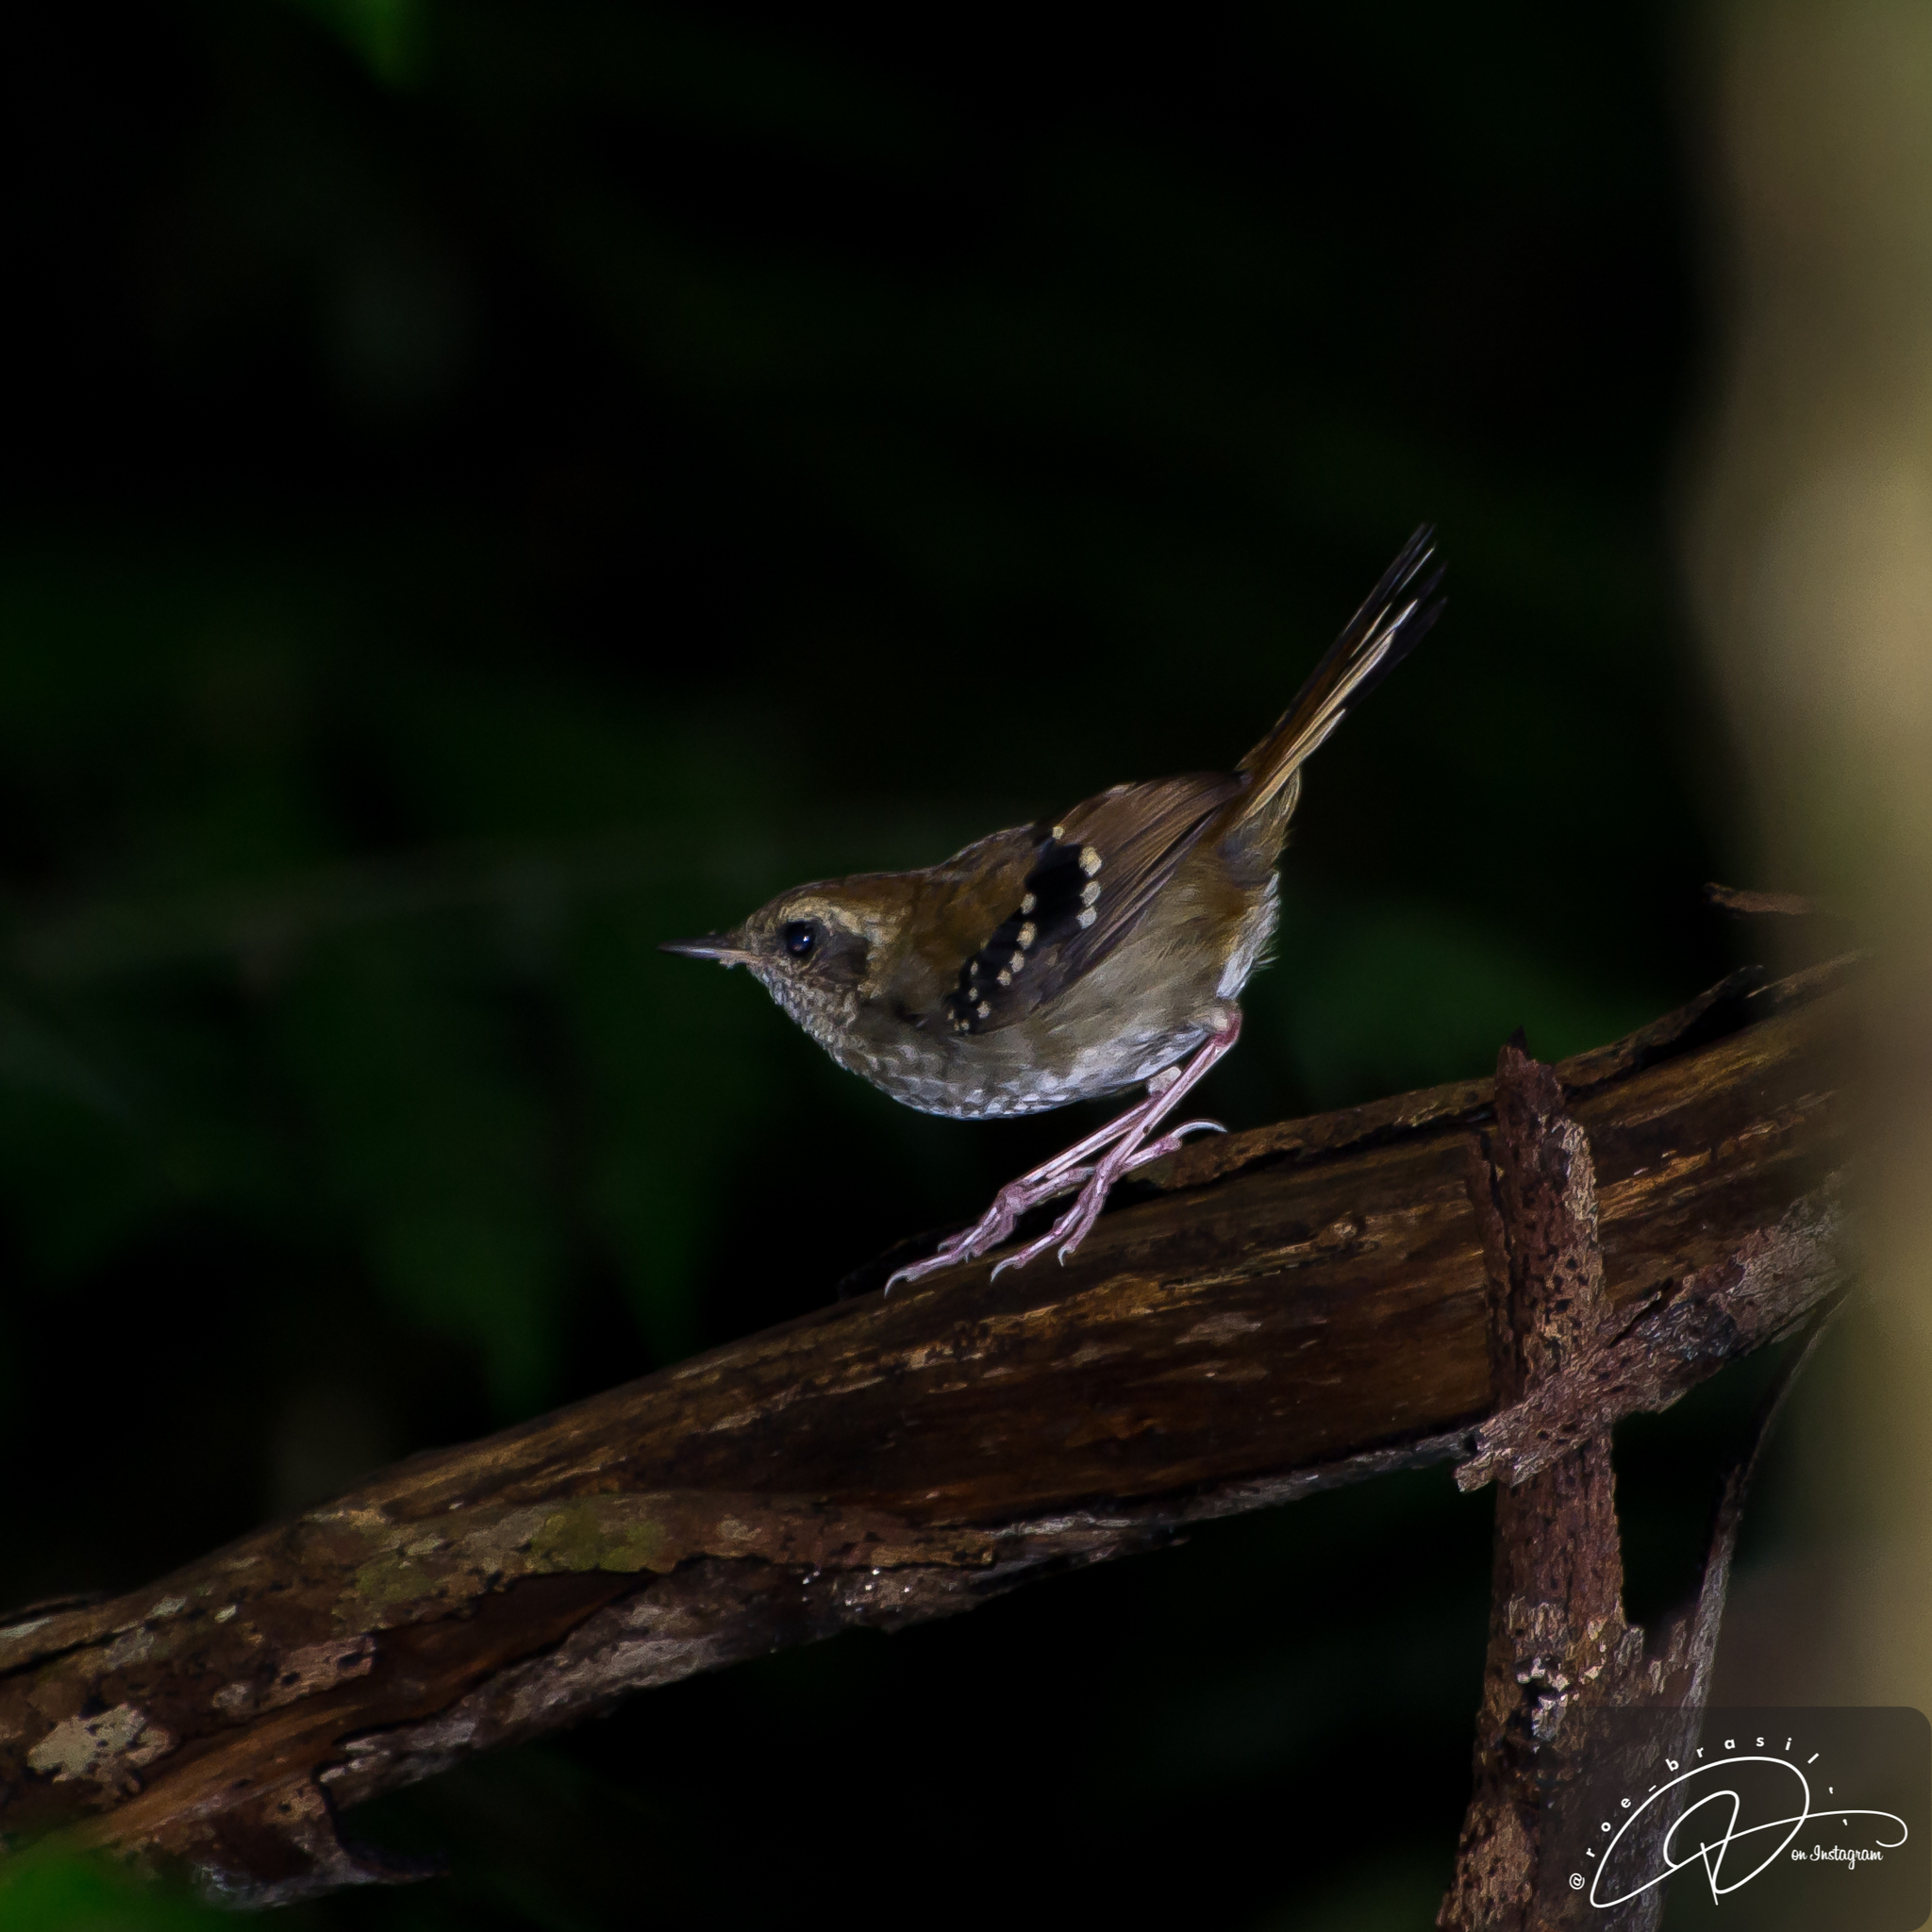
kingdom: Animalia
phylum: Chordata
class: Aves
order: Passeriformes
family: Thamnophilidae
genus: Myrmeciza
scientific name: Myrmeciza squamosa
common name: Squamate antbird
